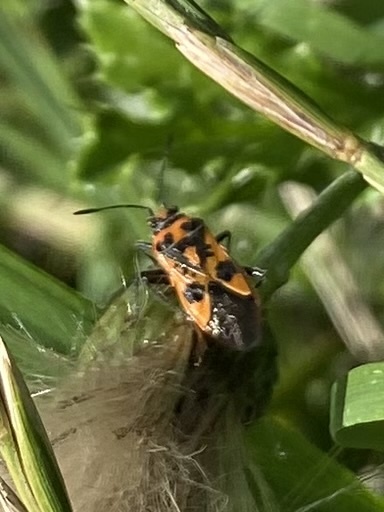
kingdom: Animalia
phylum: Arthropoda
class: Insecta
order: Hemiptera
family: Rhopalidae
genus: Corizus
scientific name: Corizus hyoscyami
